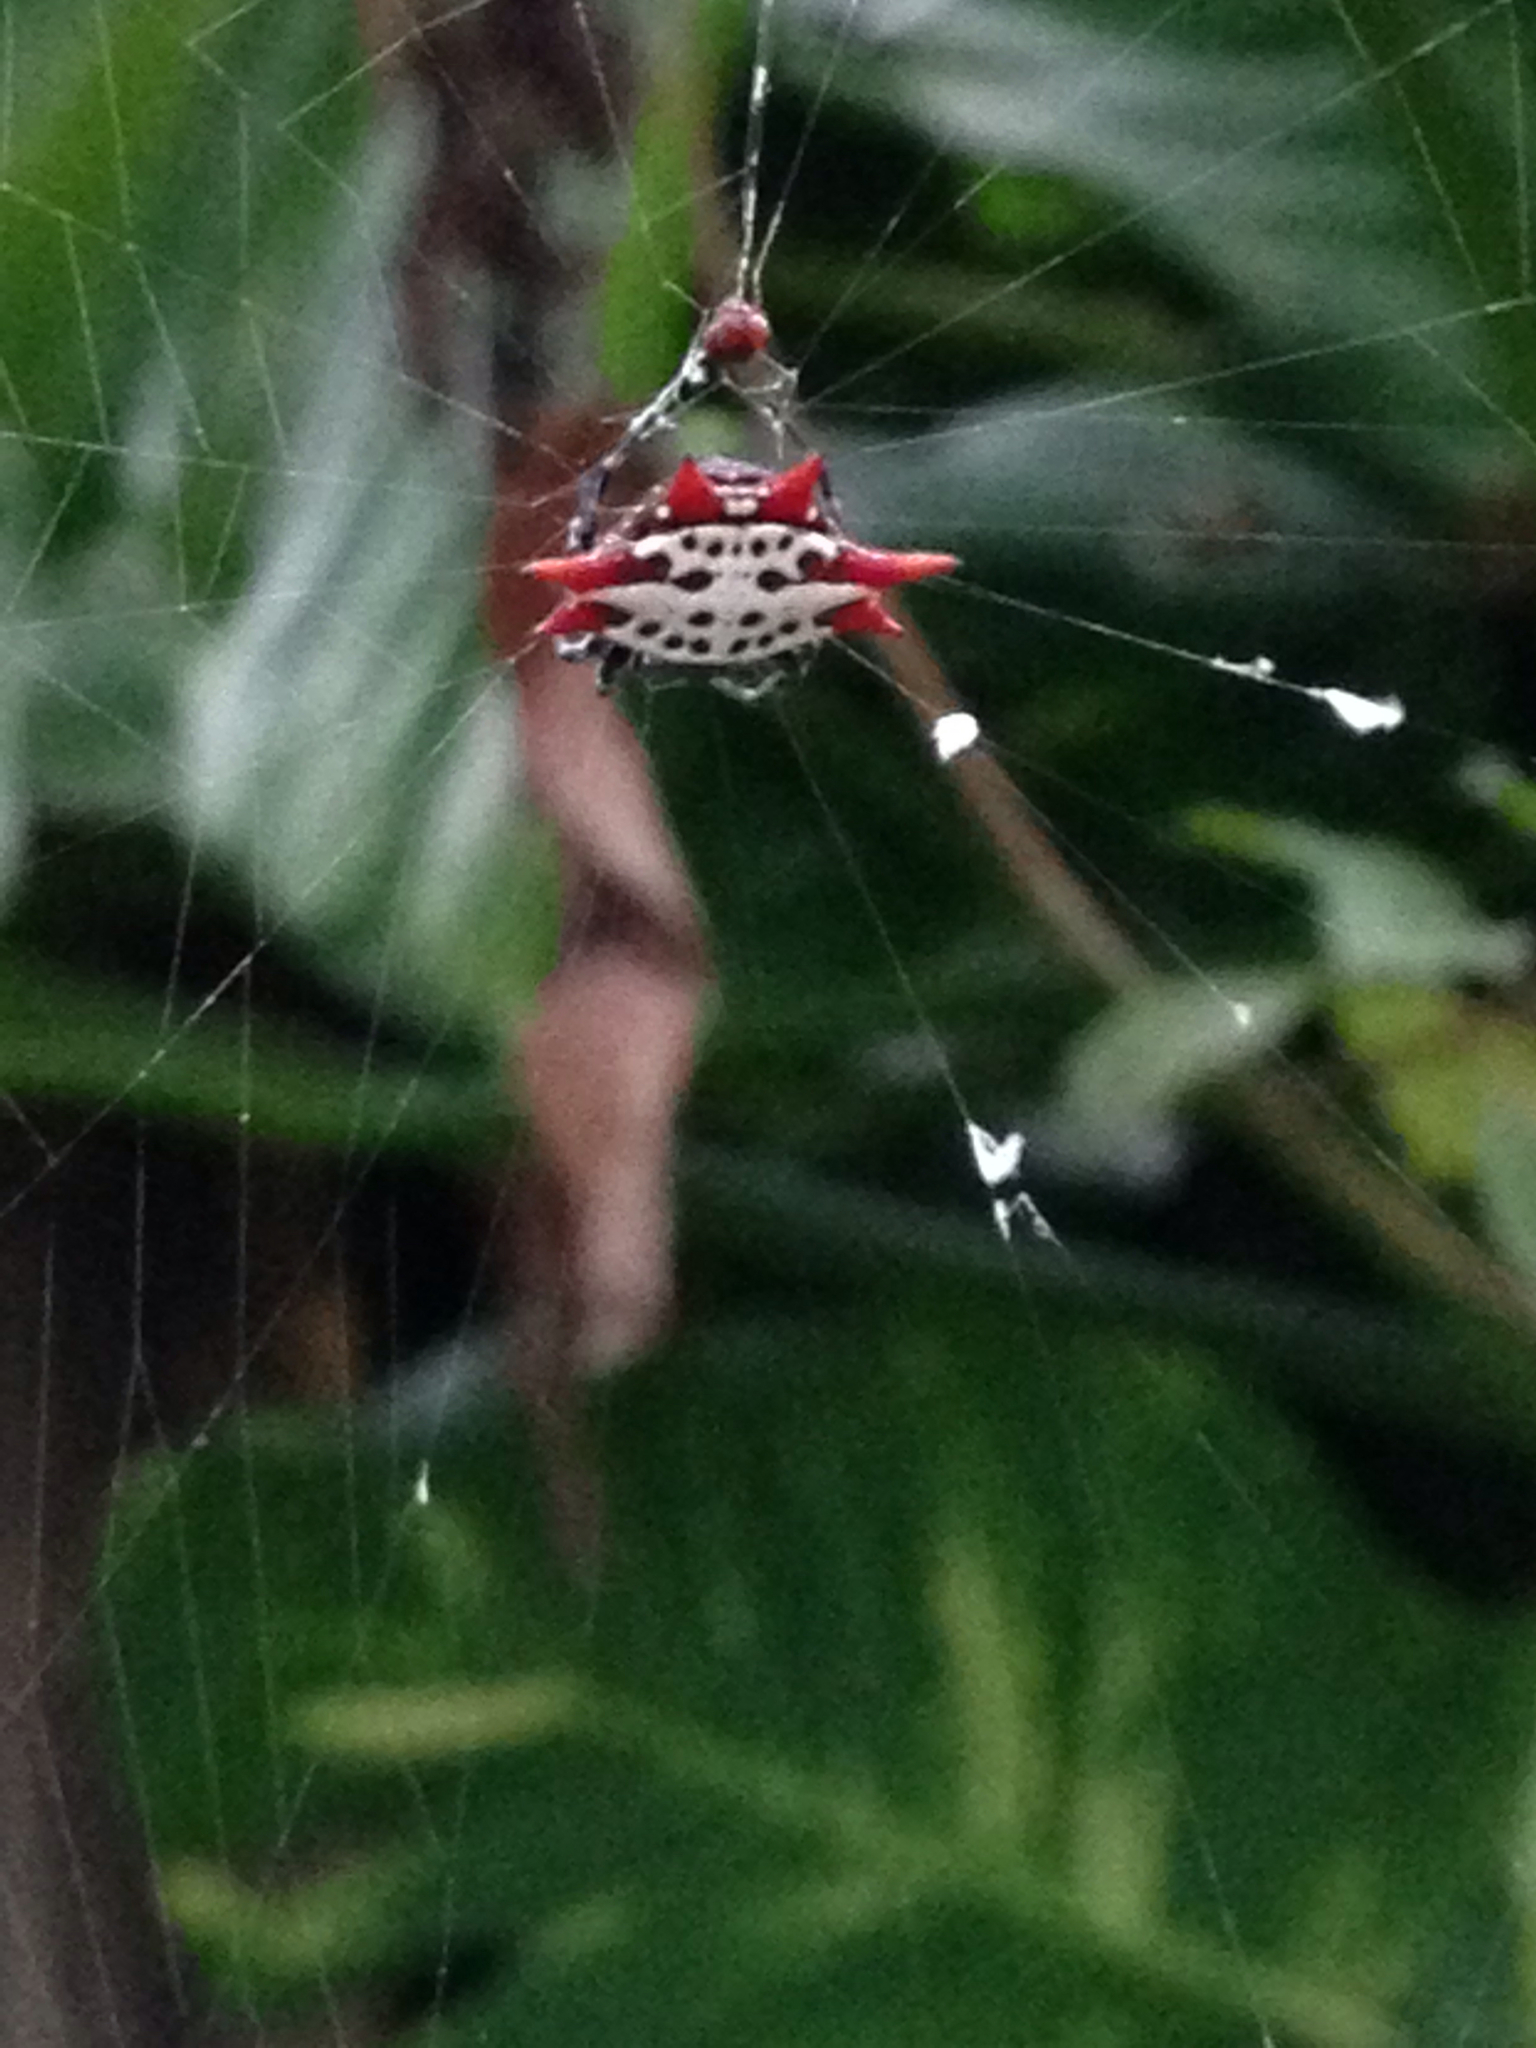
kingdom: Animalia
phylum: Arthropoda
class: Arachnida
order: Araneae
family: Araneidae
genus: Gasteracantha
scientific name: Gasteracantha cancriformis
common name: Orb weavers
